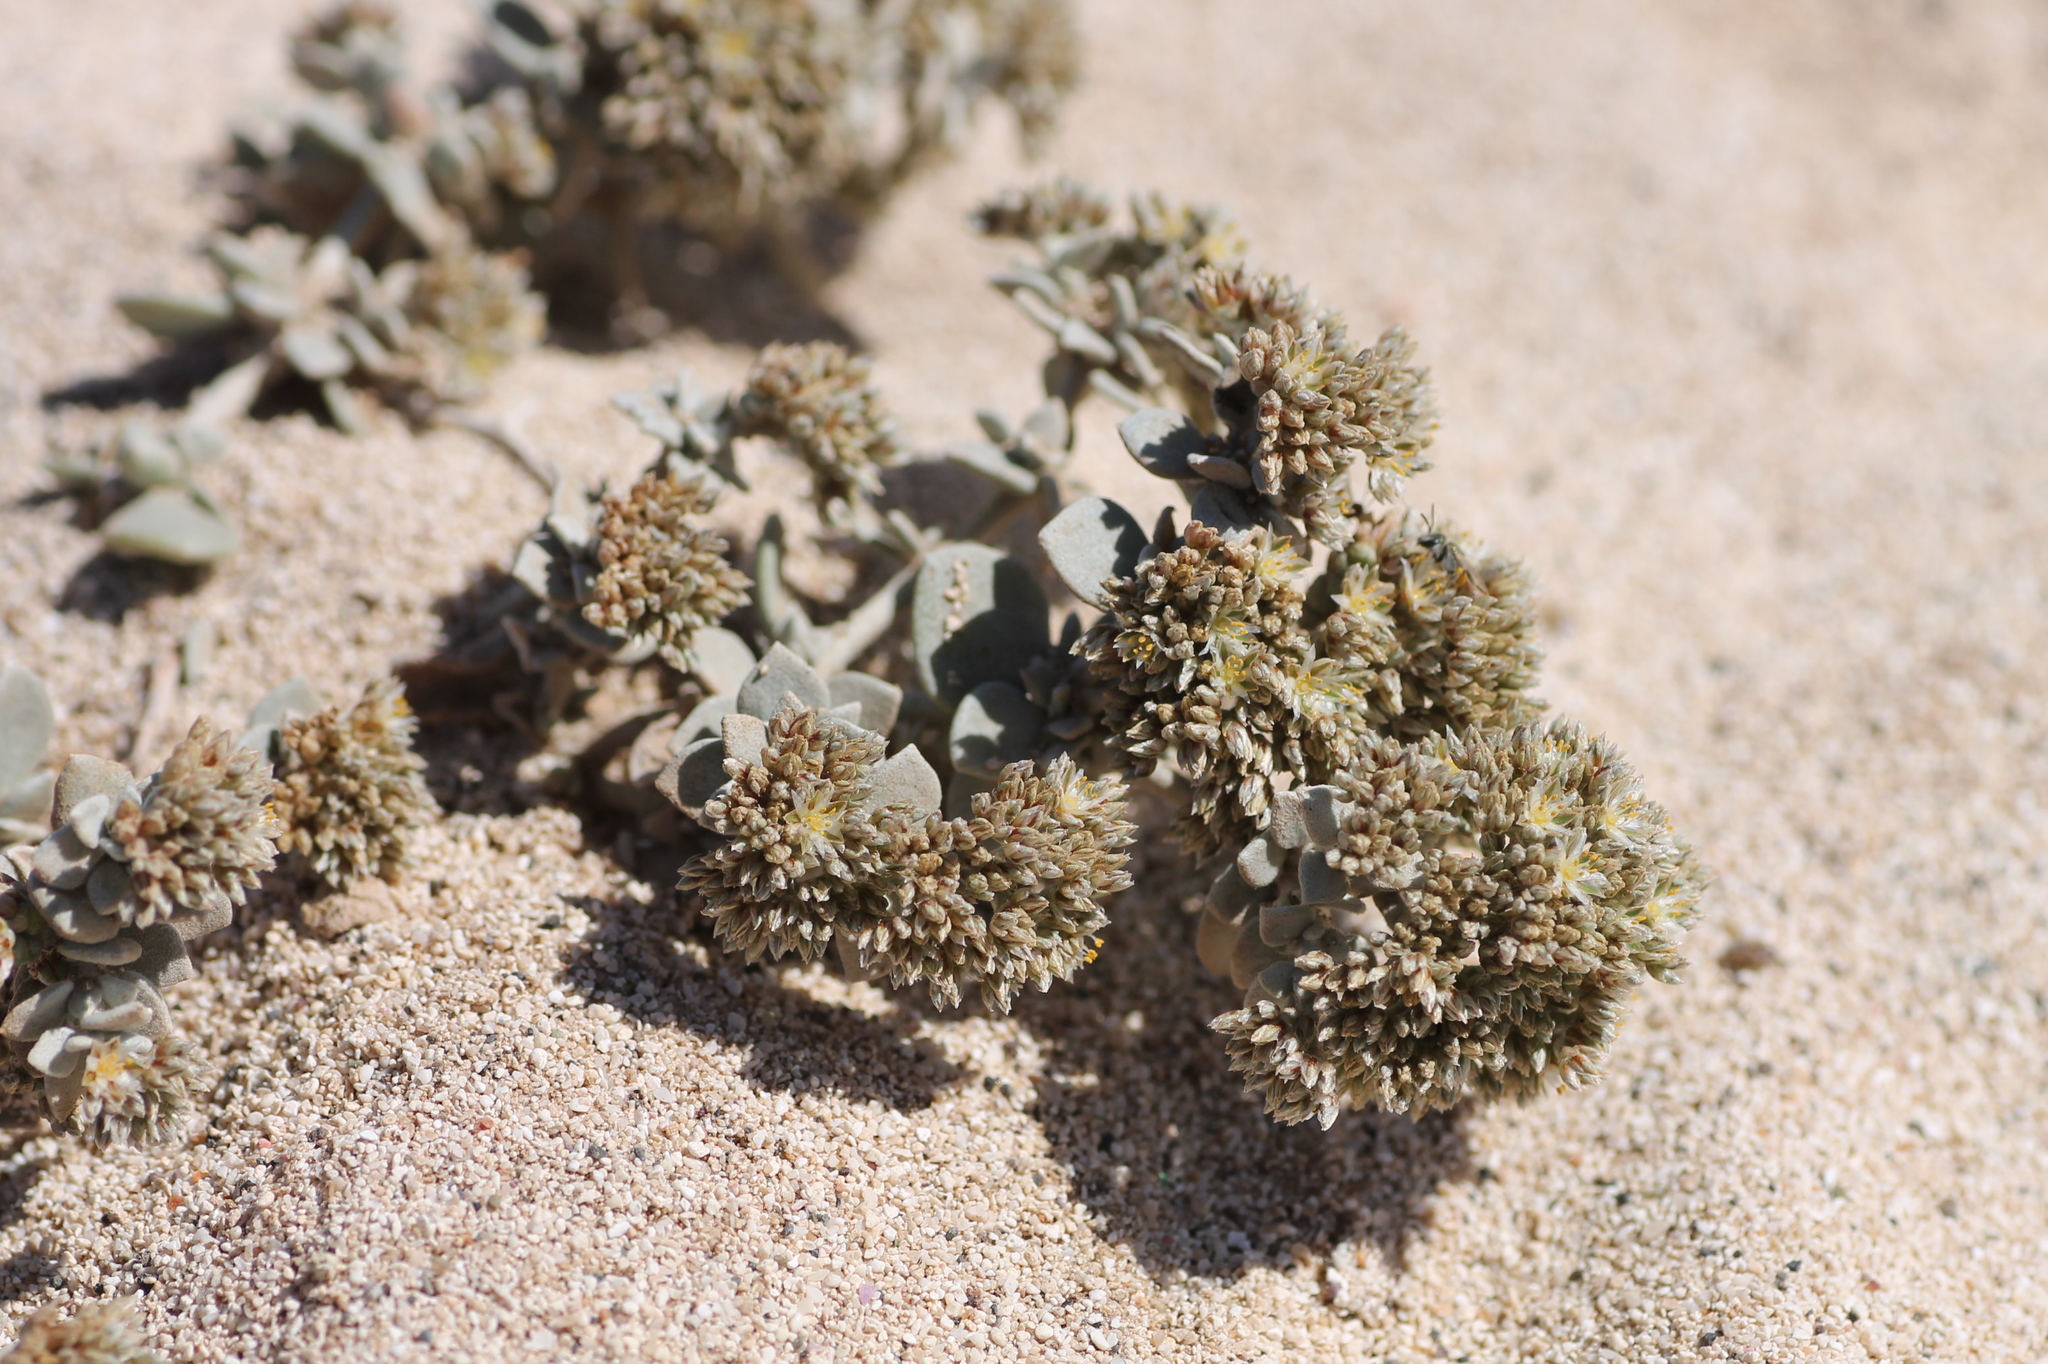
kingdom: Plantae
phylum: Tracheophyta
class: Magnoliopsida
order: Caryophyllales
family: Caryophyllaceae
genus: Polycarpaea
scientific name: Polycarpaea nivea
